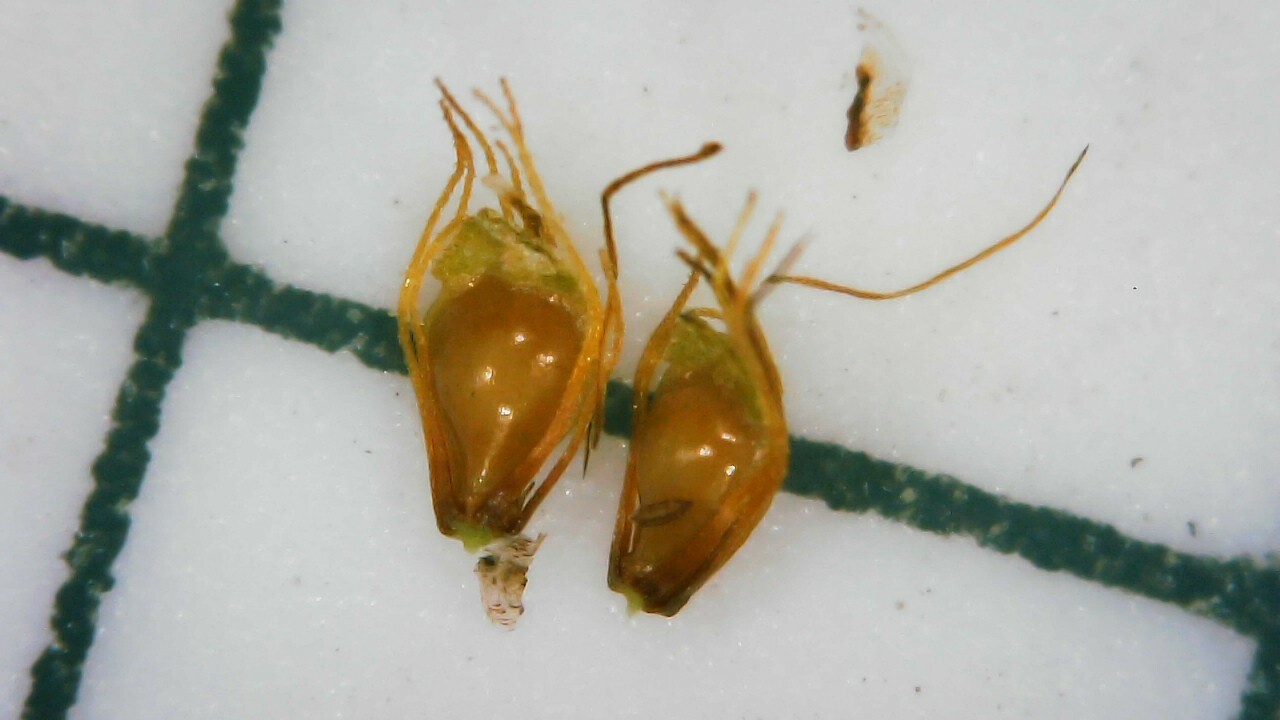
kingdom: Plantae
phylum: Tracheophyta
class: Liliopsida
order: Poales
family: Cyperaceae
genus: Eleocharis
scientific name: Eleocharis obtusa
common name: Blunt spikerush
